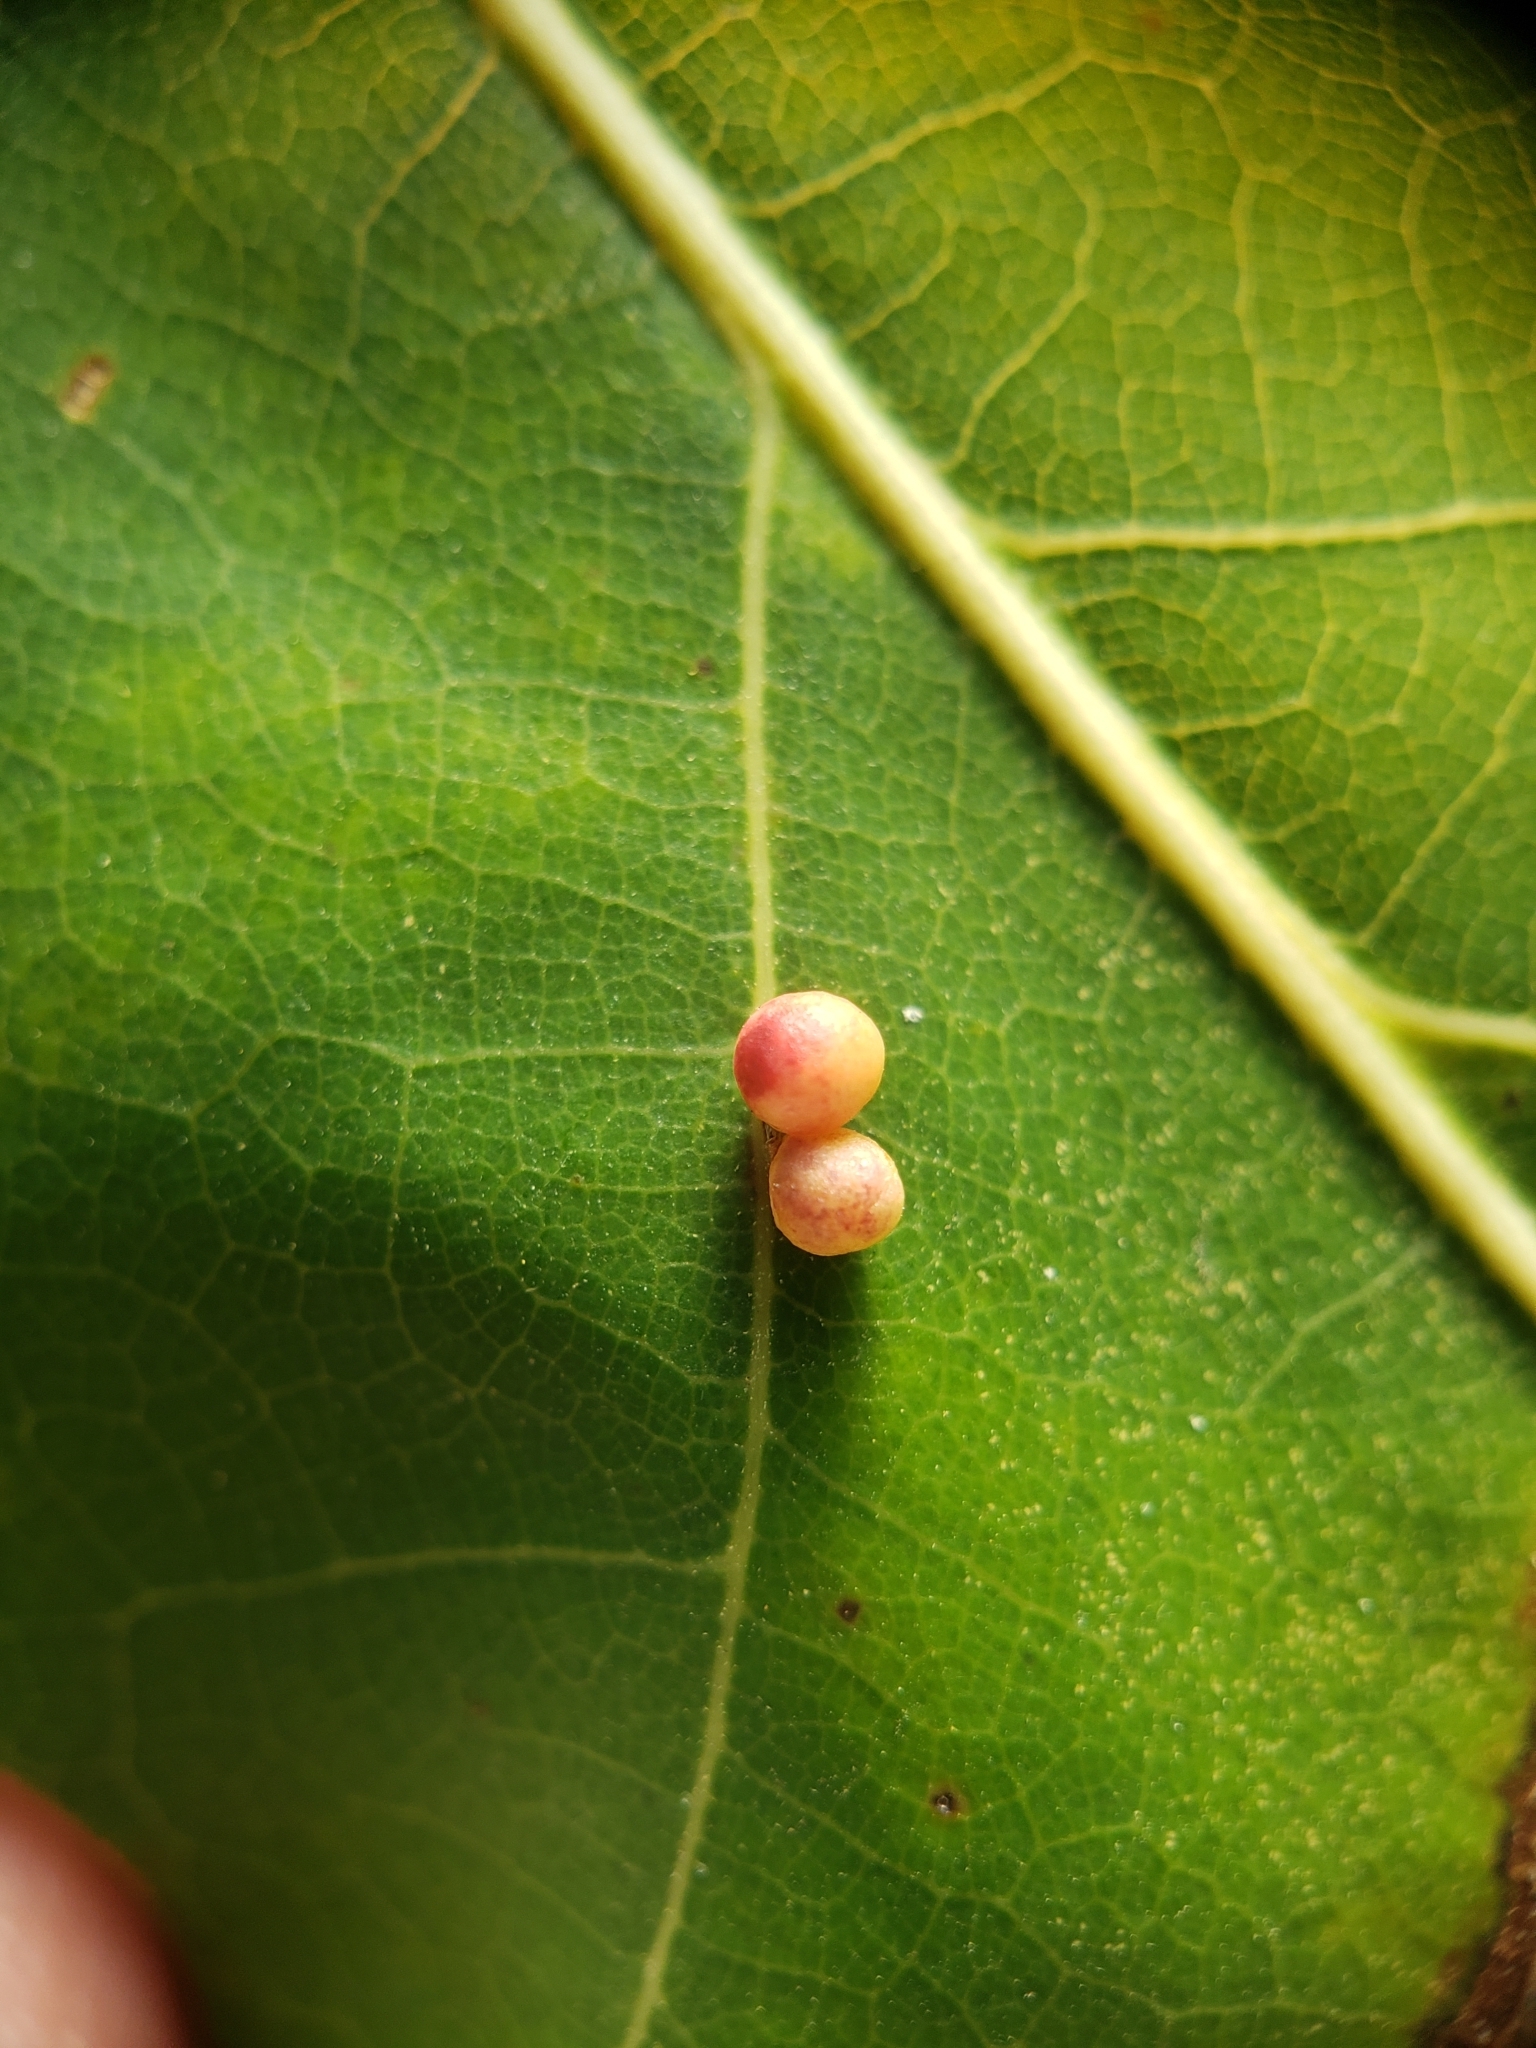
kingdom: Animalia
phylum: Arthropoda
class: Insecta
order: Hymenoptera
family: Cynipidae
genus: Zopheroteras
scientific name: Zopheroteras
